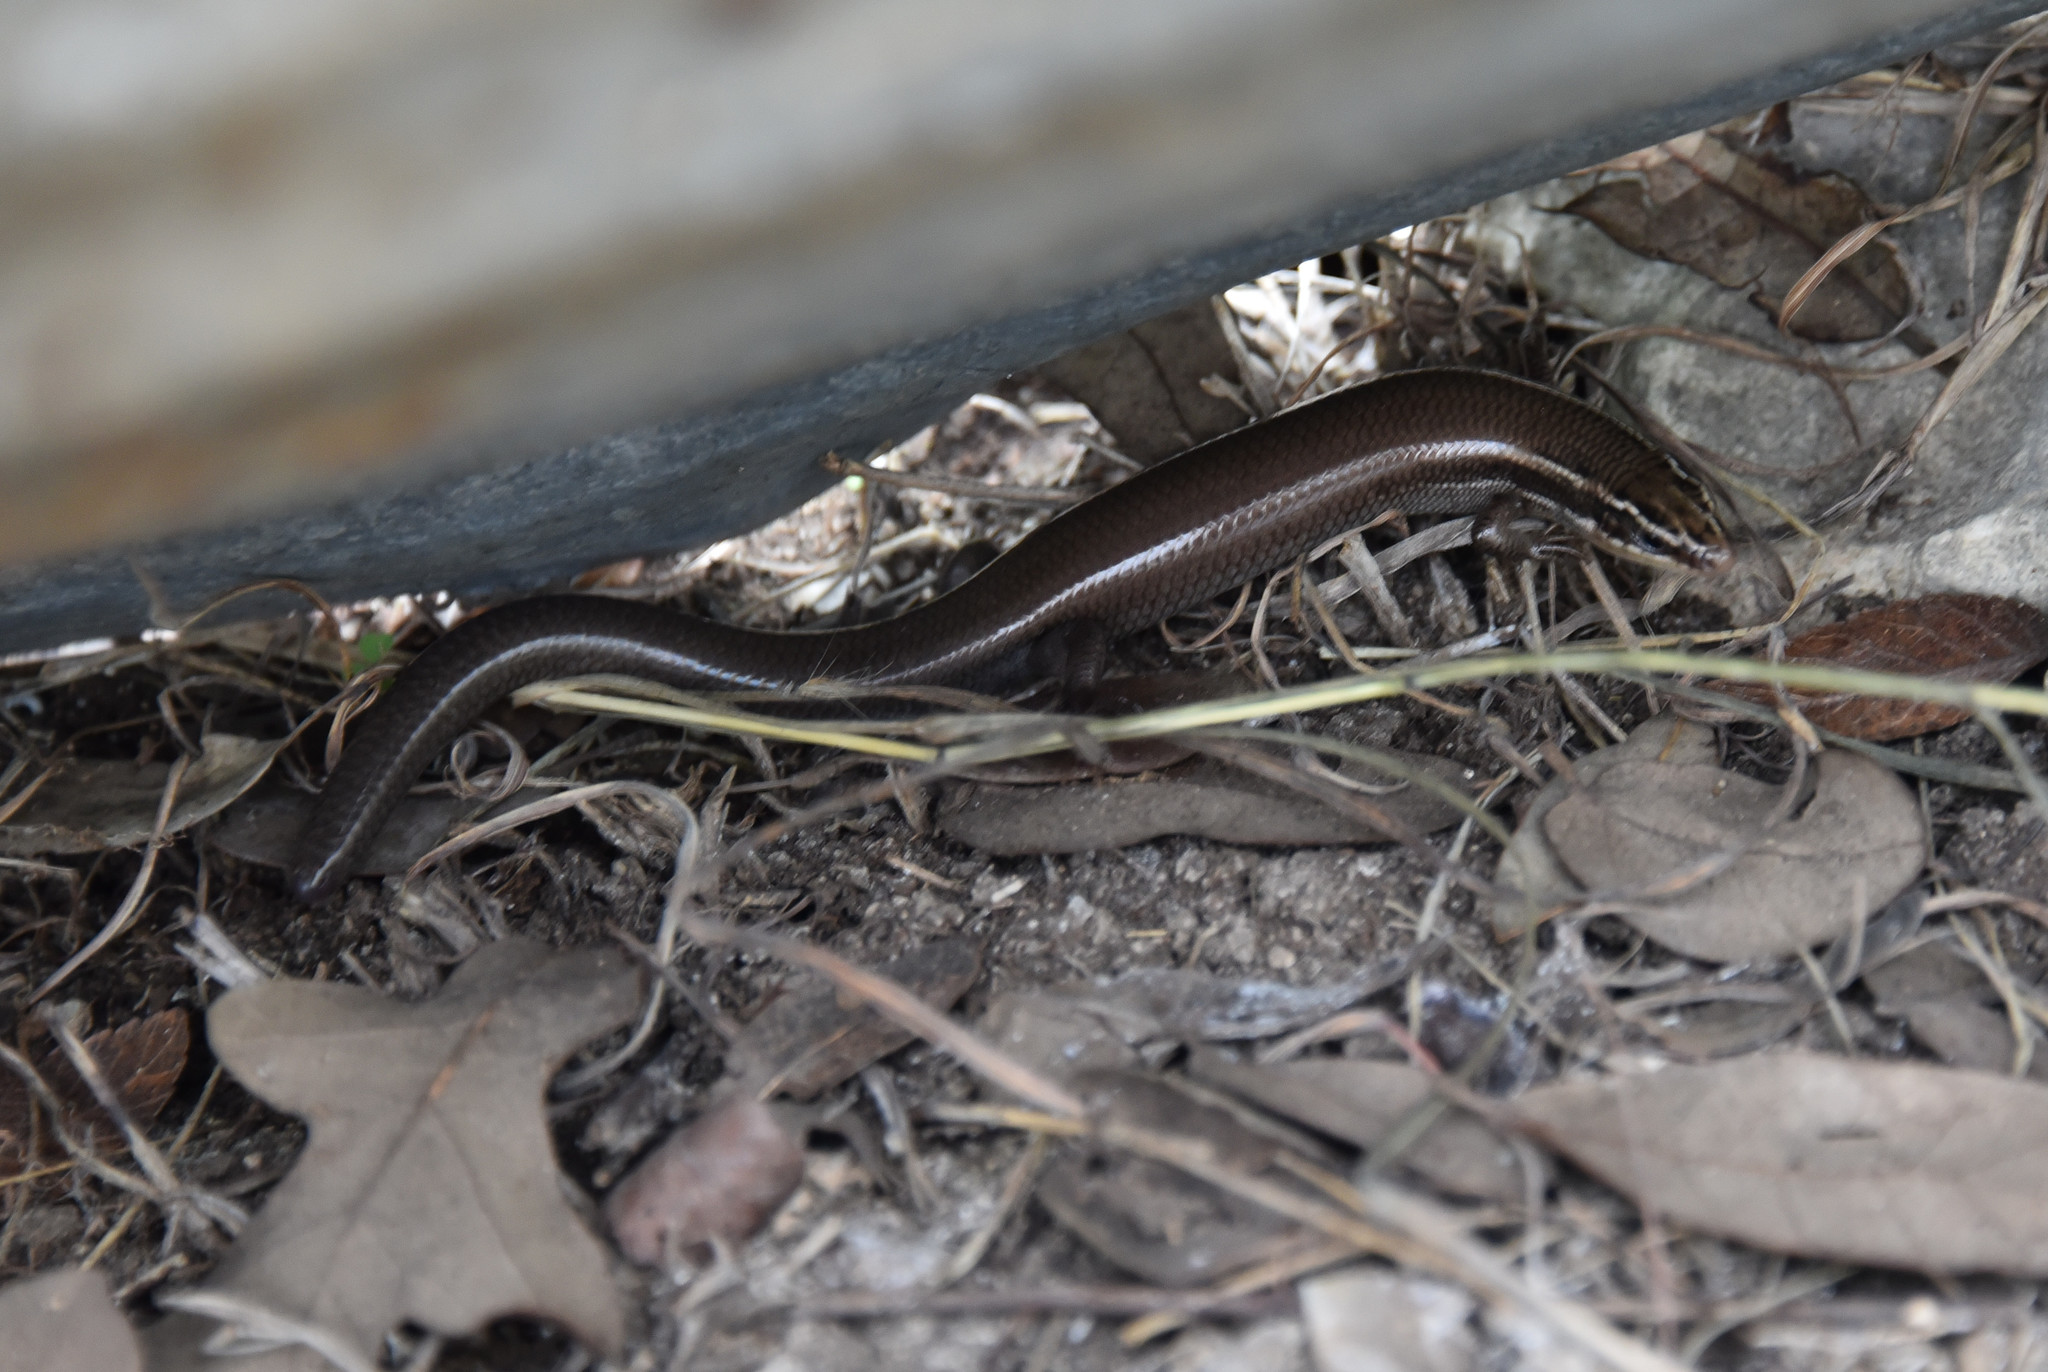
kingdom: Animalia
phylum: Chordata
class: Squamata
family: Scincidae
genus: Plestiodon
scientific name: Plestiodon tetragrammus
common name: Four-lined skink
